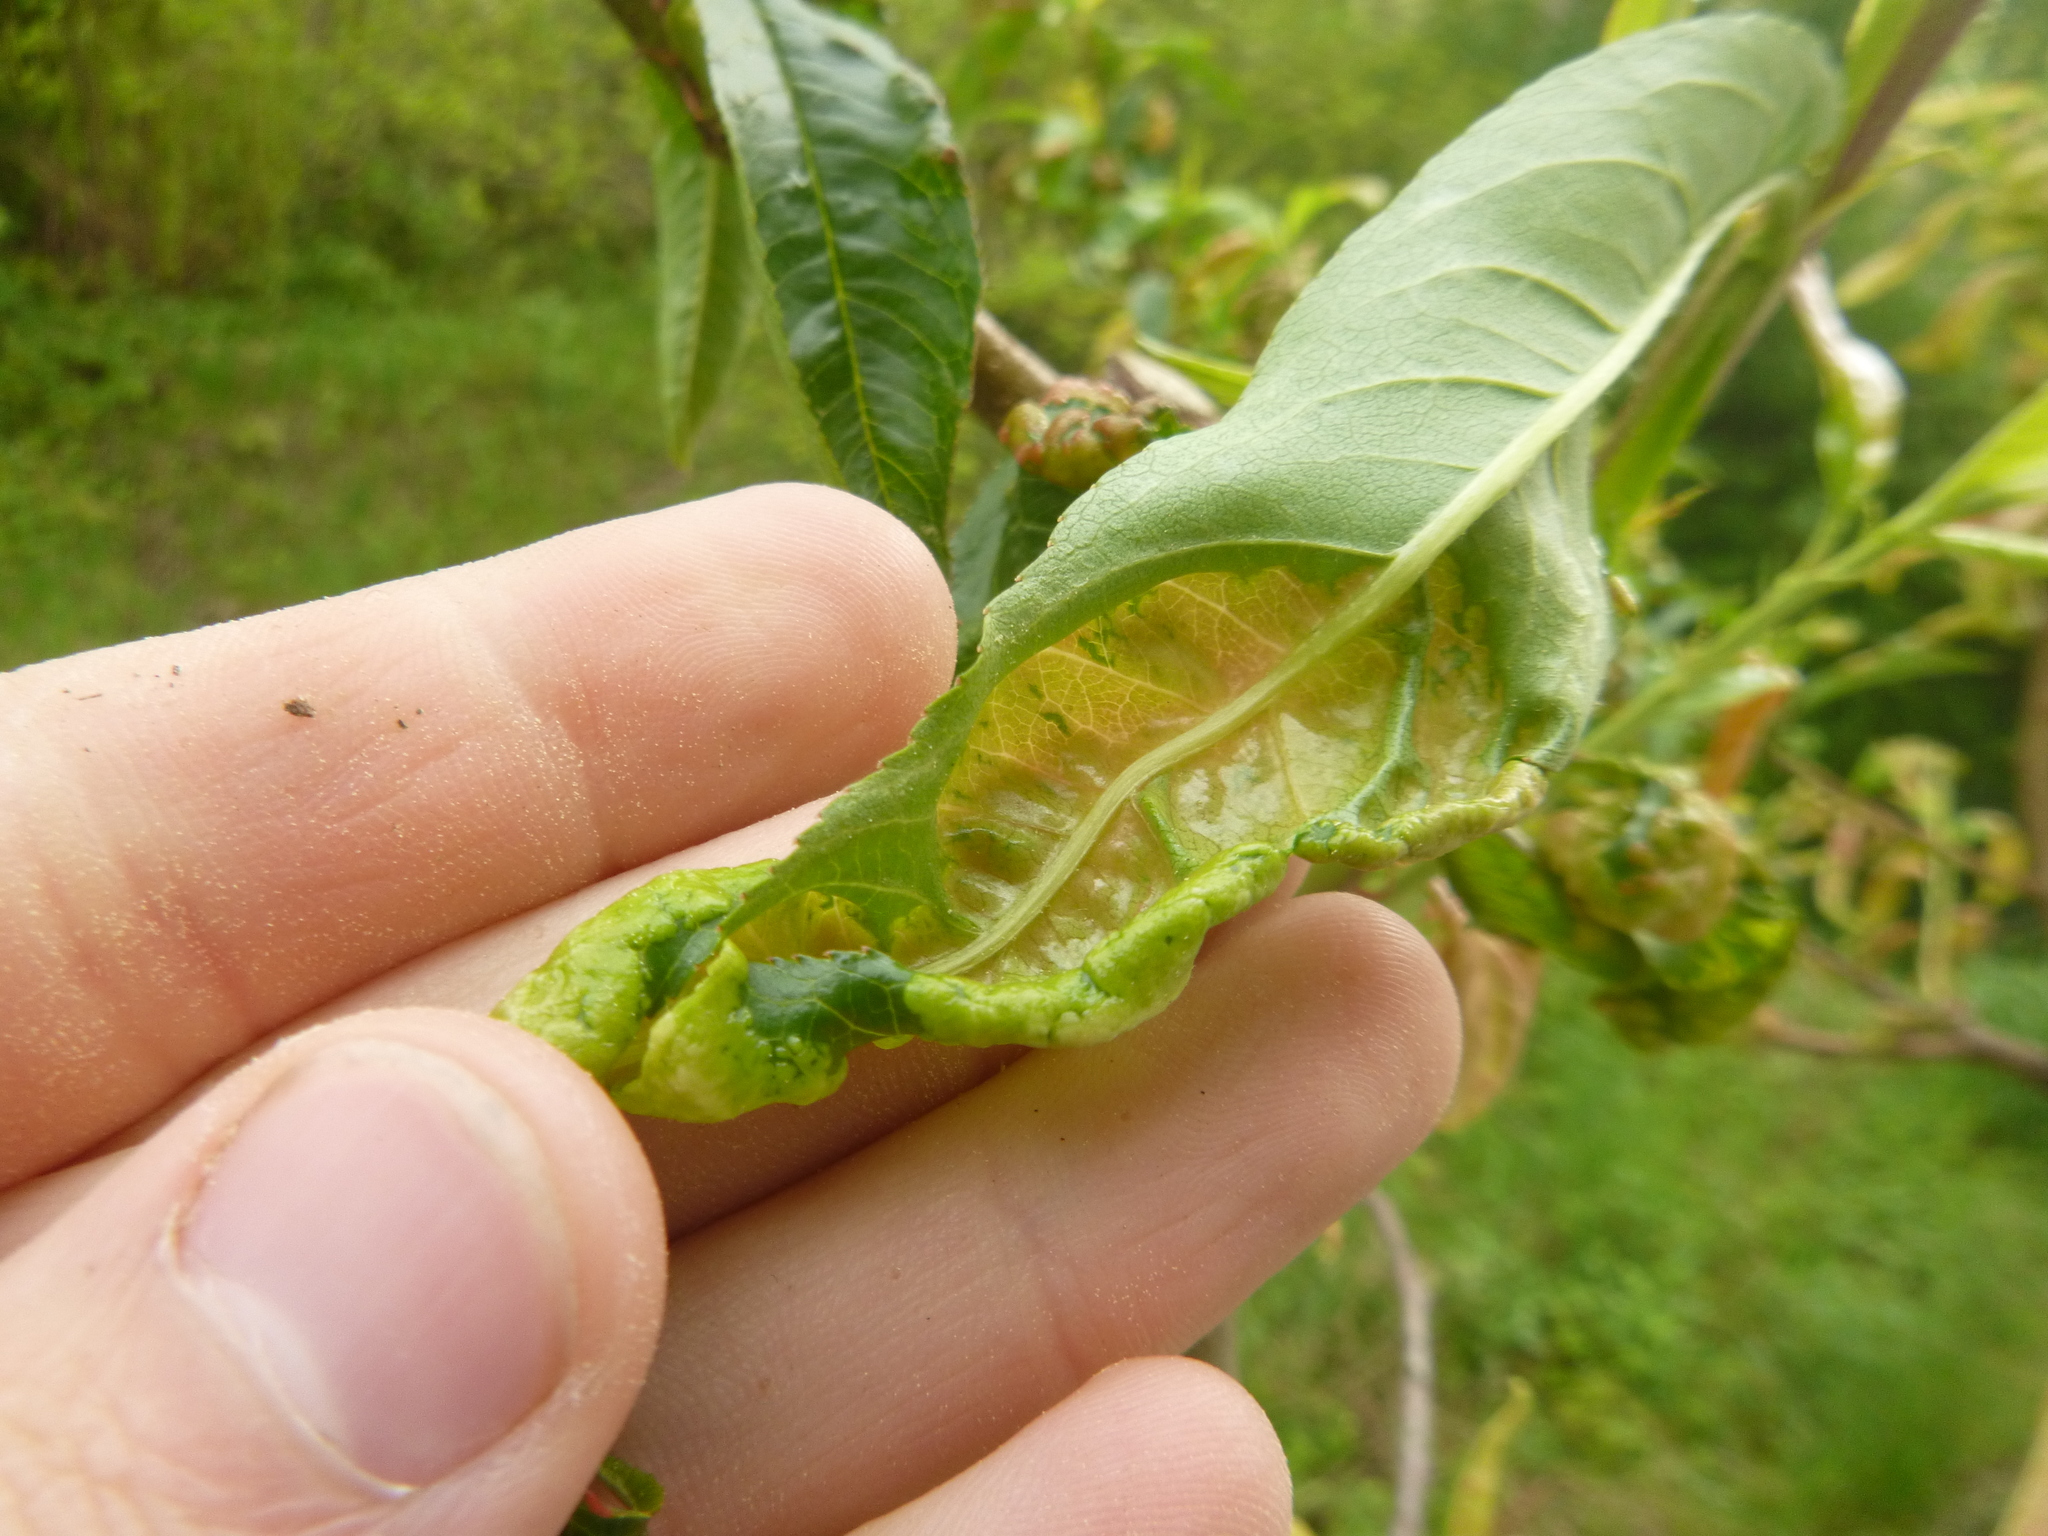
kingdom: Fungi
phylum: Ascomycota
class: Taphrinomycetes
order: Taphrinales
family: Taphrinaceae
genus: Taphrina
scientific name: Taphrina deformans
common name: Peach leaf curl
